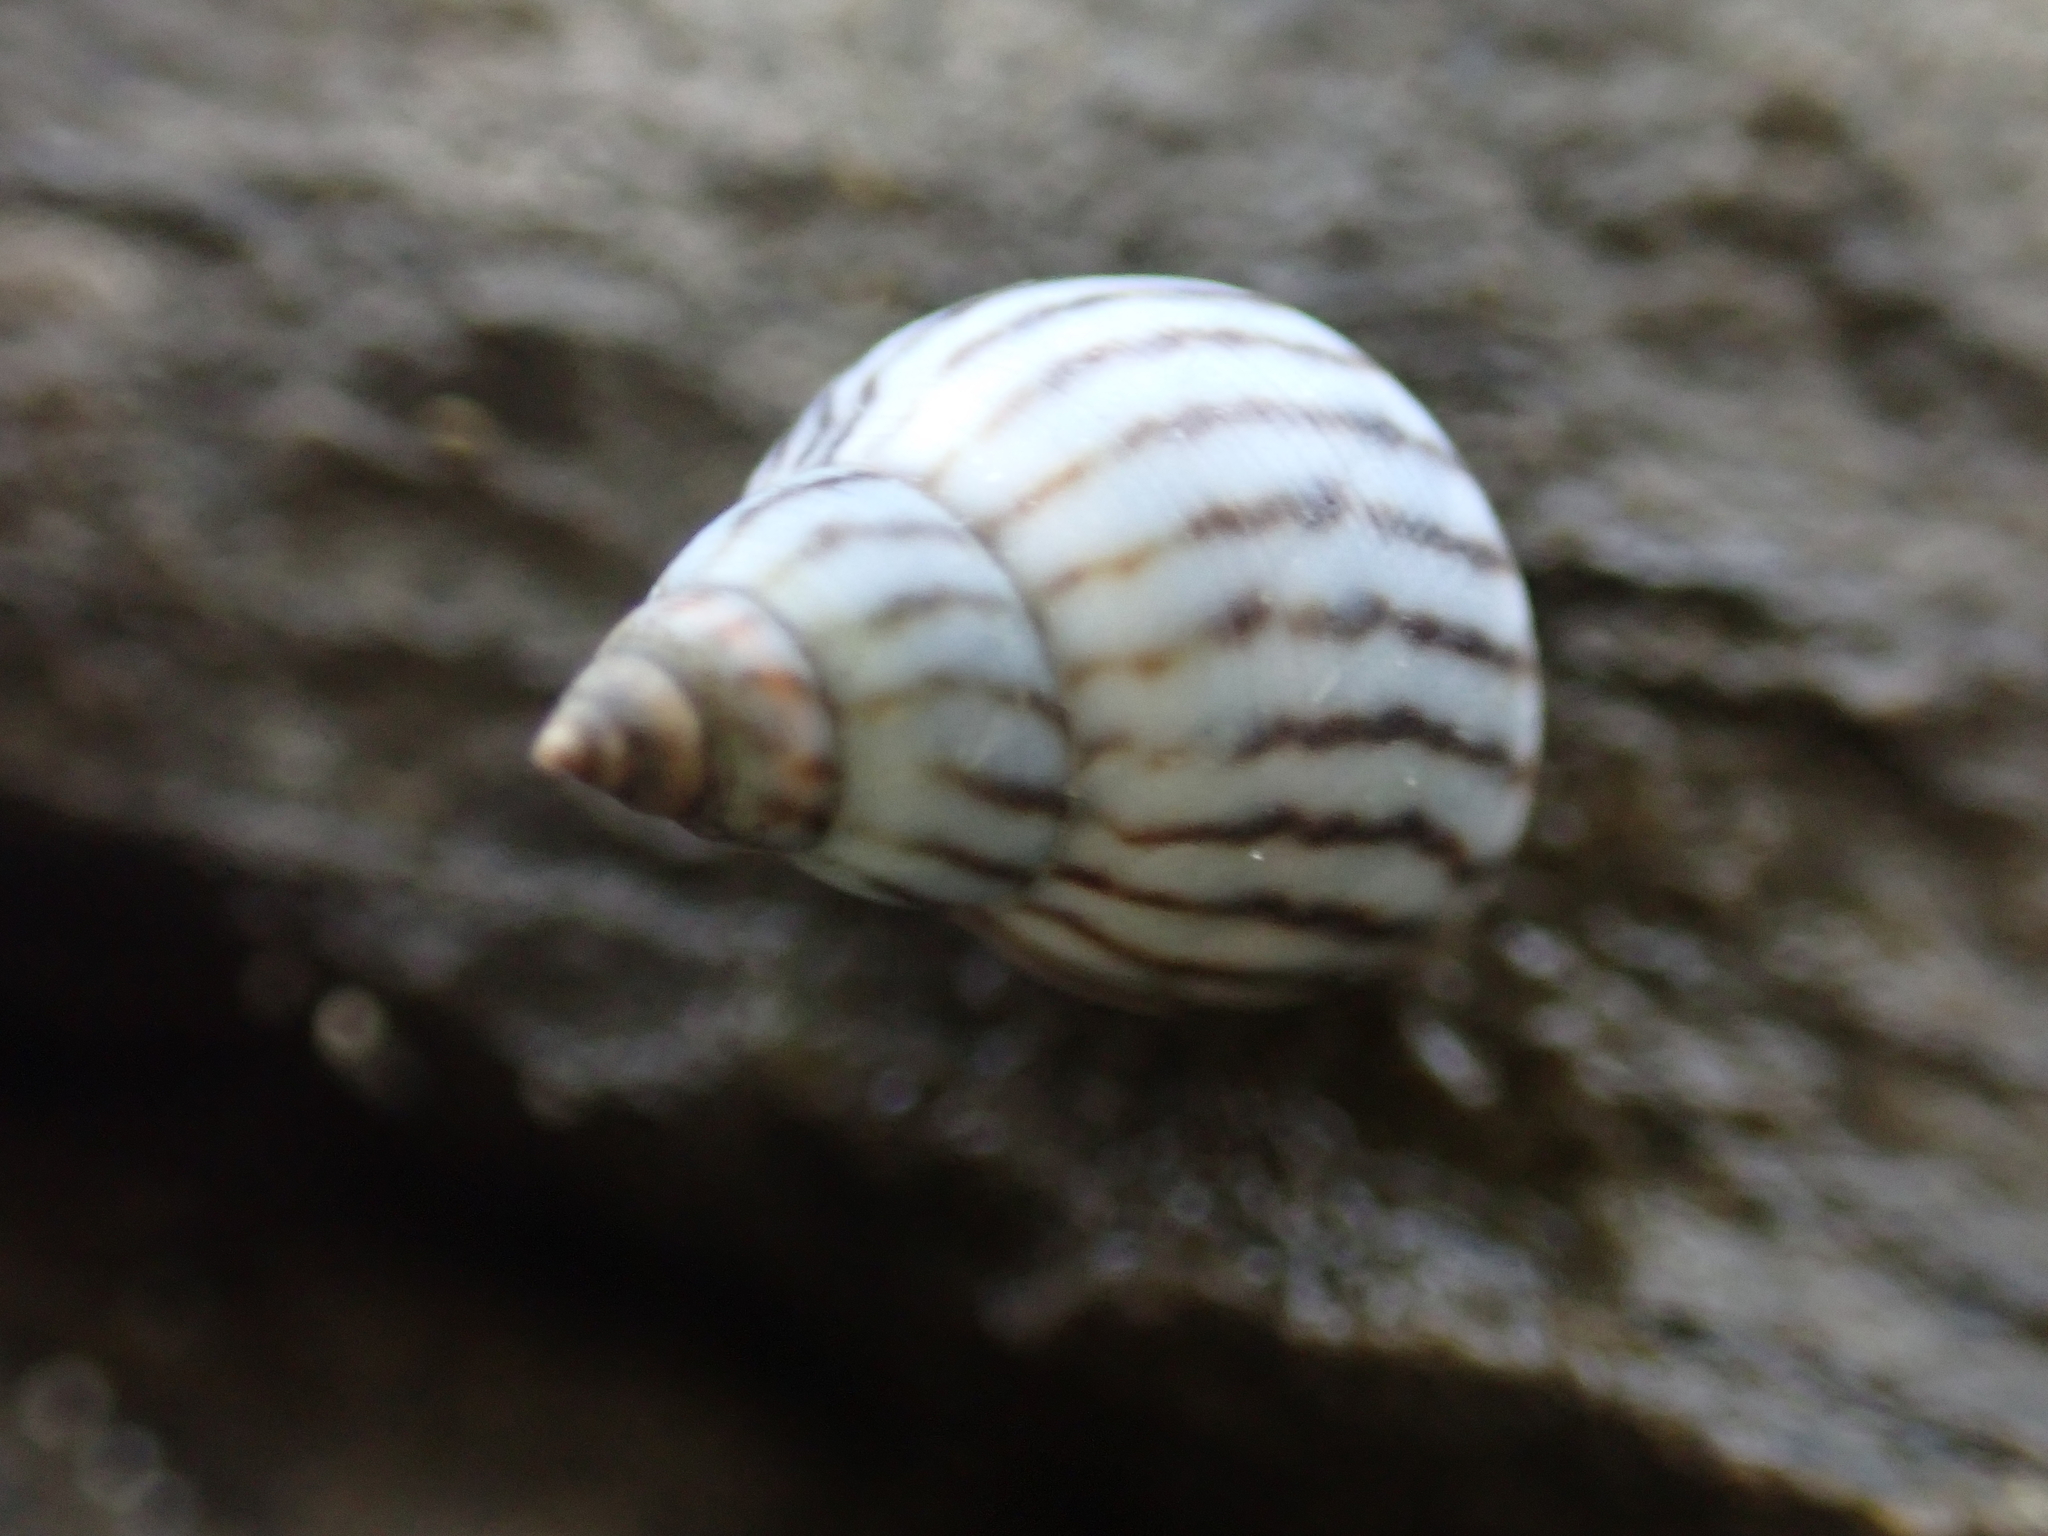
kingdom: Animalia
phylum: Mollusca
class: Gastropoda
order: Littorinimorpha
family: Littorinidae
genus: Echinolittorina
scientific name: Echinolittorina ziczac
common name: Zebra periwinkle
